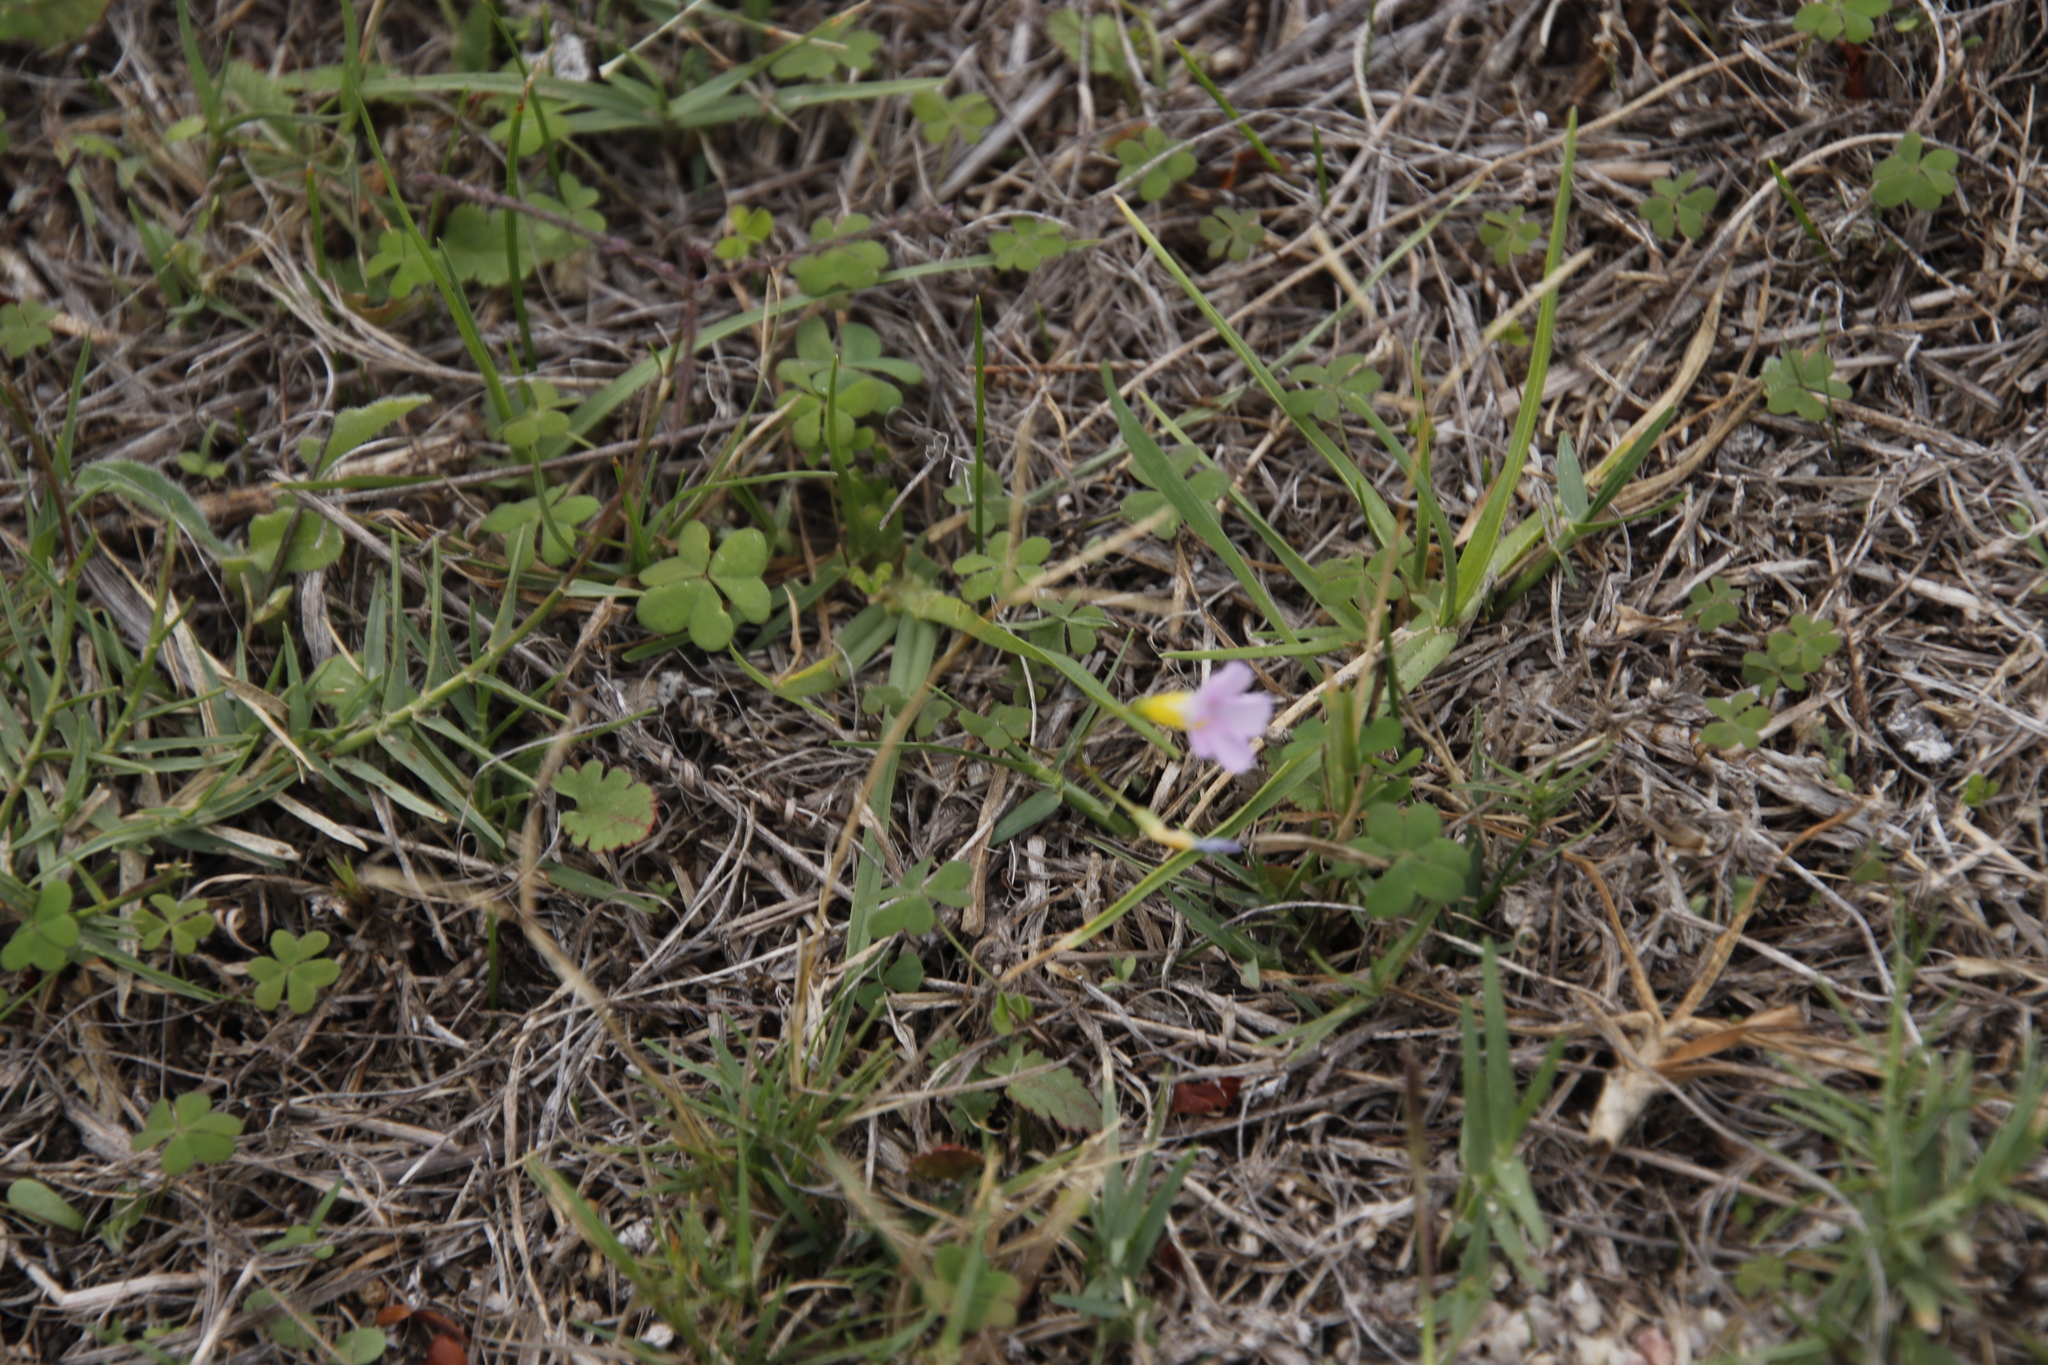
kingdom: Plantae
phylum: Tracheophyta
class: Magnoliopsida
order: Oxalidales
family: Oxalidaceae
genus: Oxalis
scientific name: Oxalis caprina
